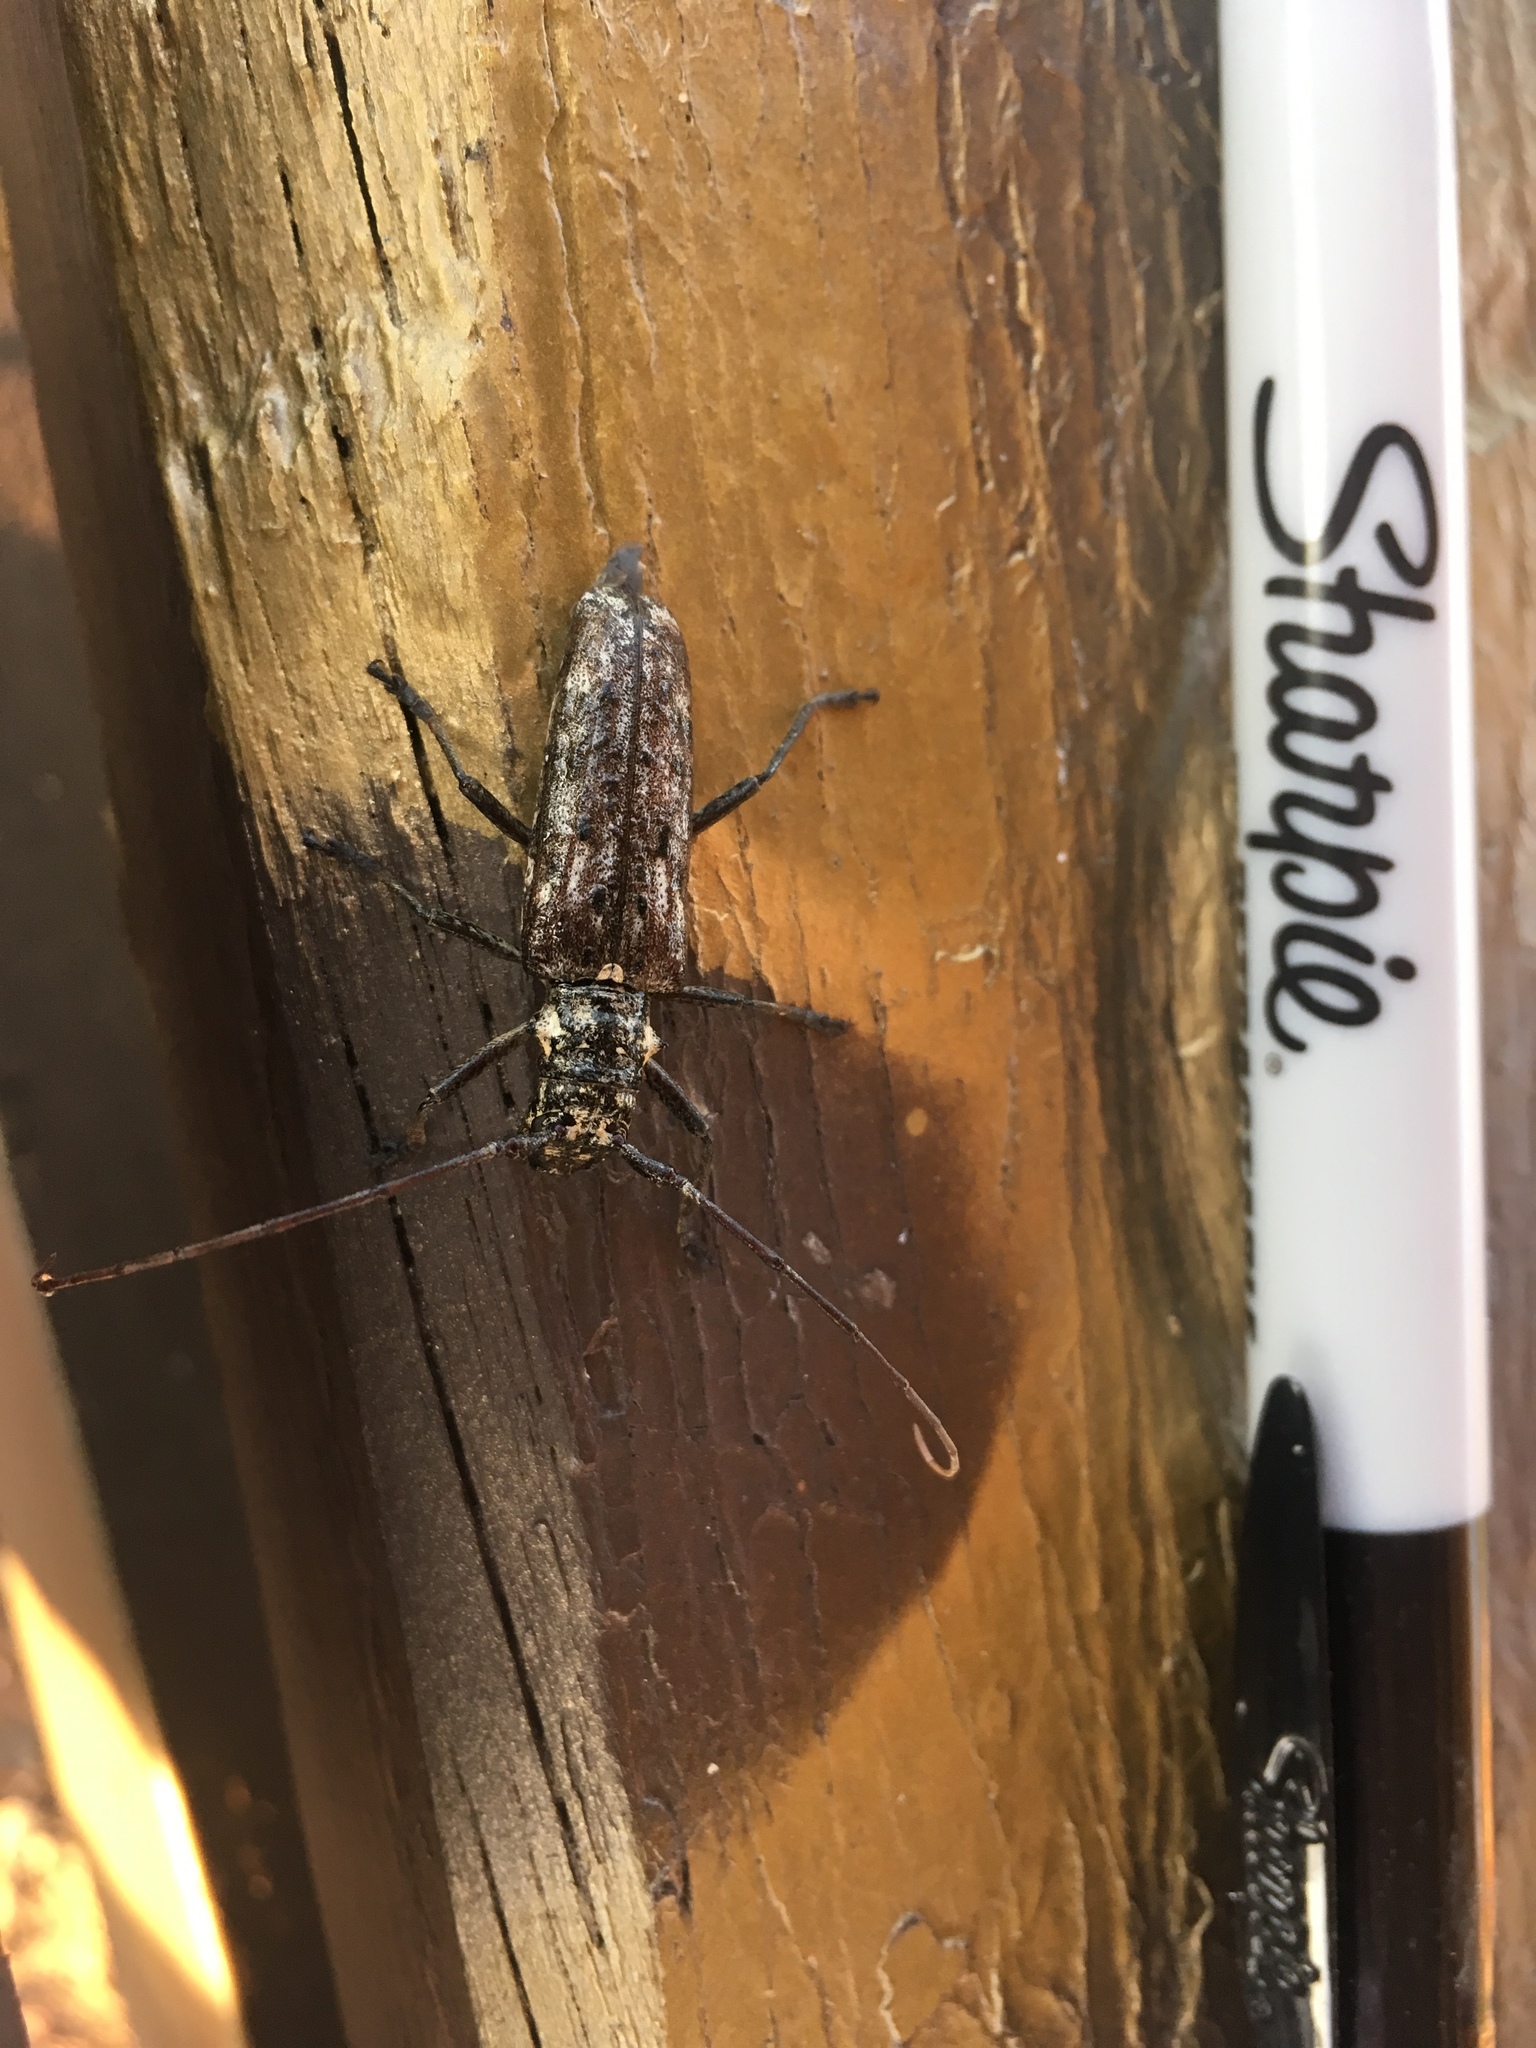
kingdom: Animalia
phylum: Arthropoda
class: Insecta
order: Coleoptera
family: Cerambycidae
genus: Monochamus
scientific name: Monochamus notatus
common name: Northeastern pine sawyer beetle
